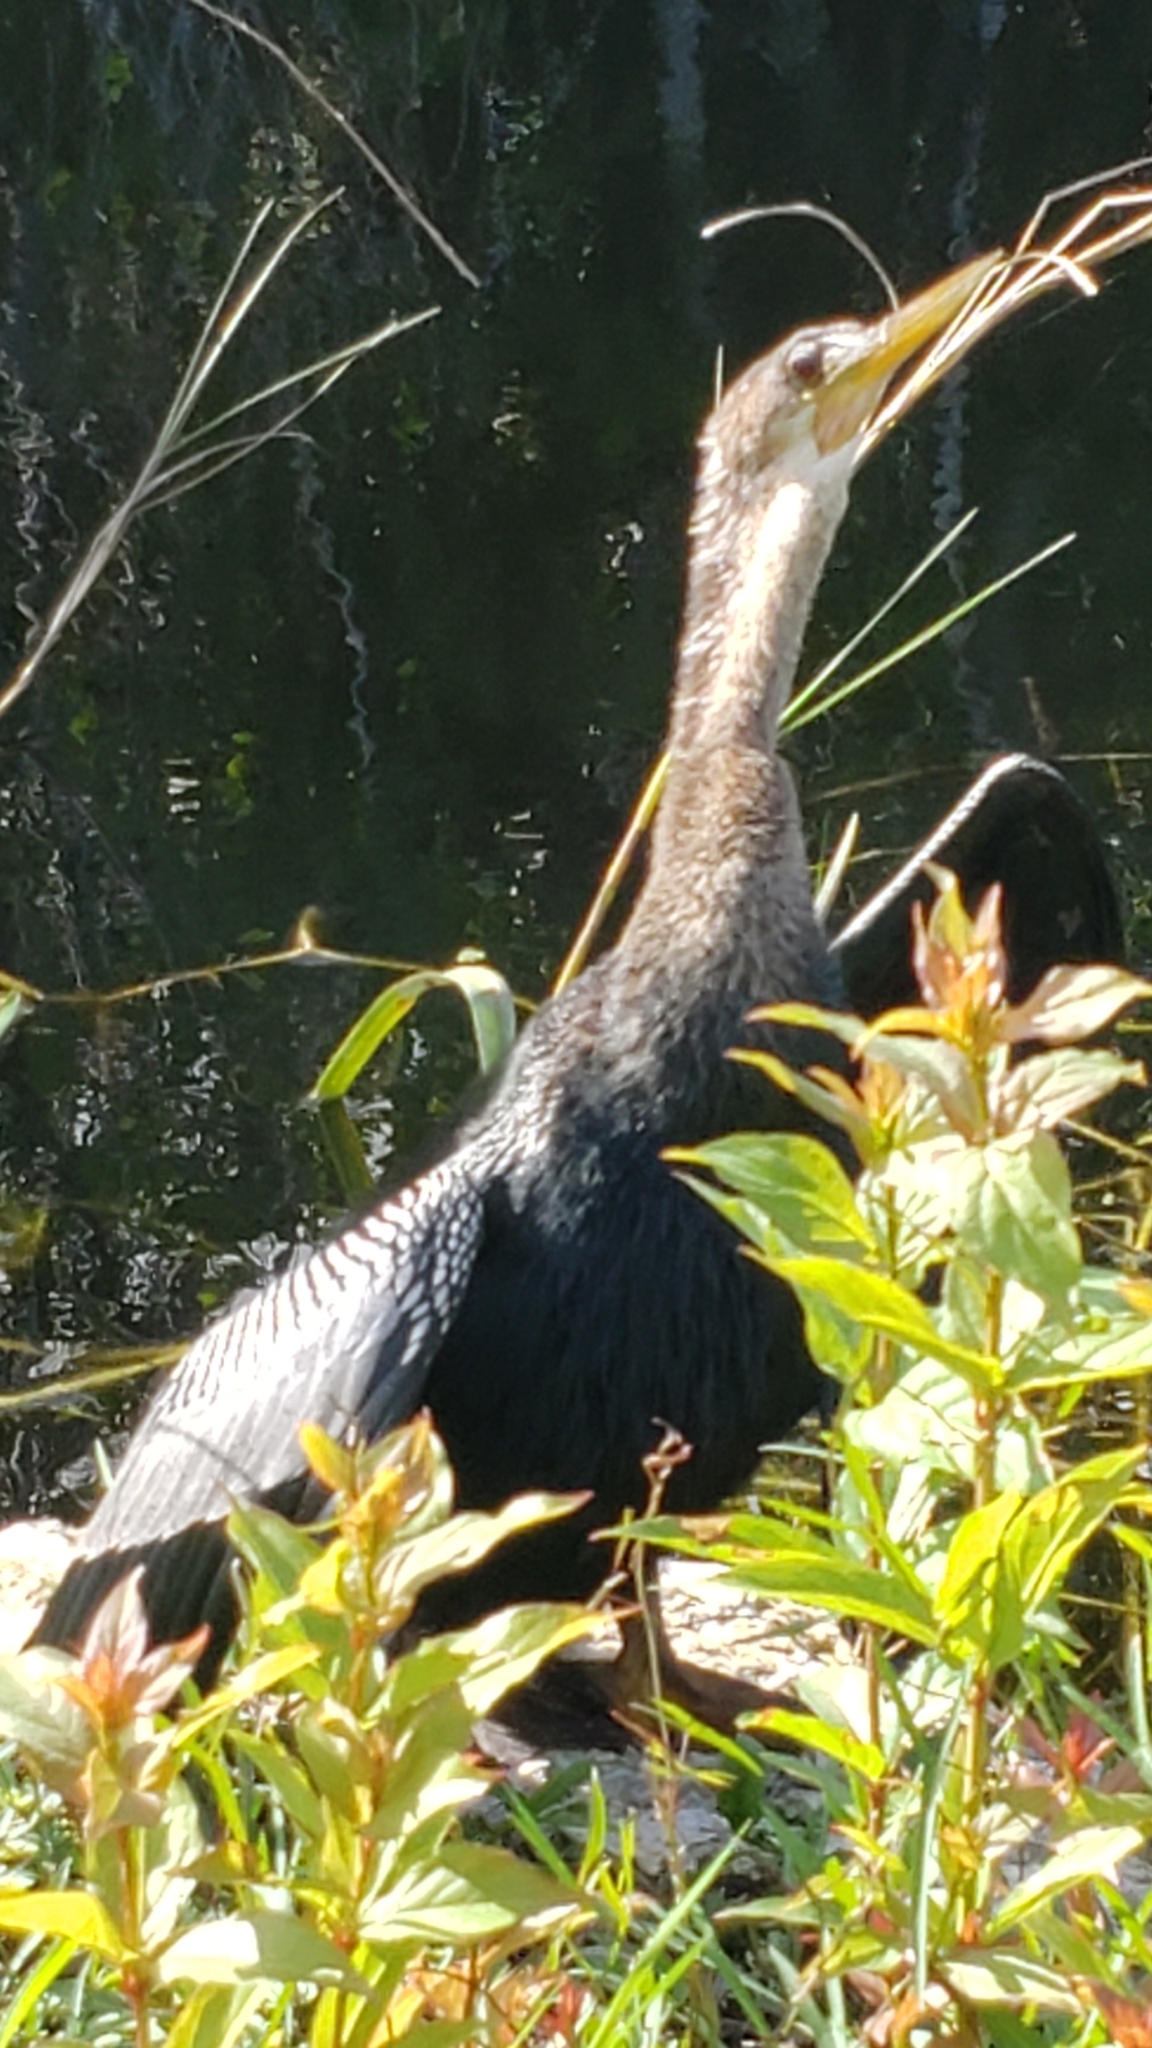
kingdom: Animalia
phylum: Chordata
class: Aves
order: Suliformes
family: Anhingidae
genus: Anhinga
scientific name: Anhinga anhinga
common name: Anhinga
